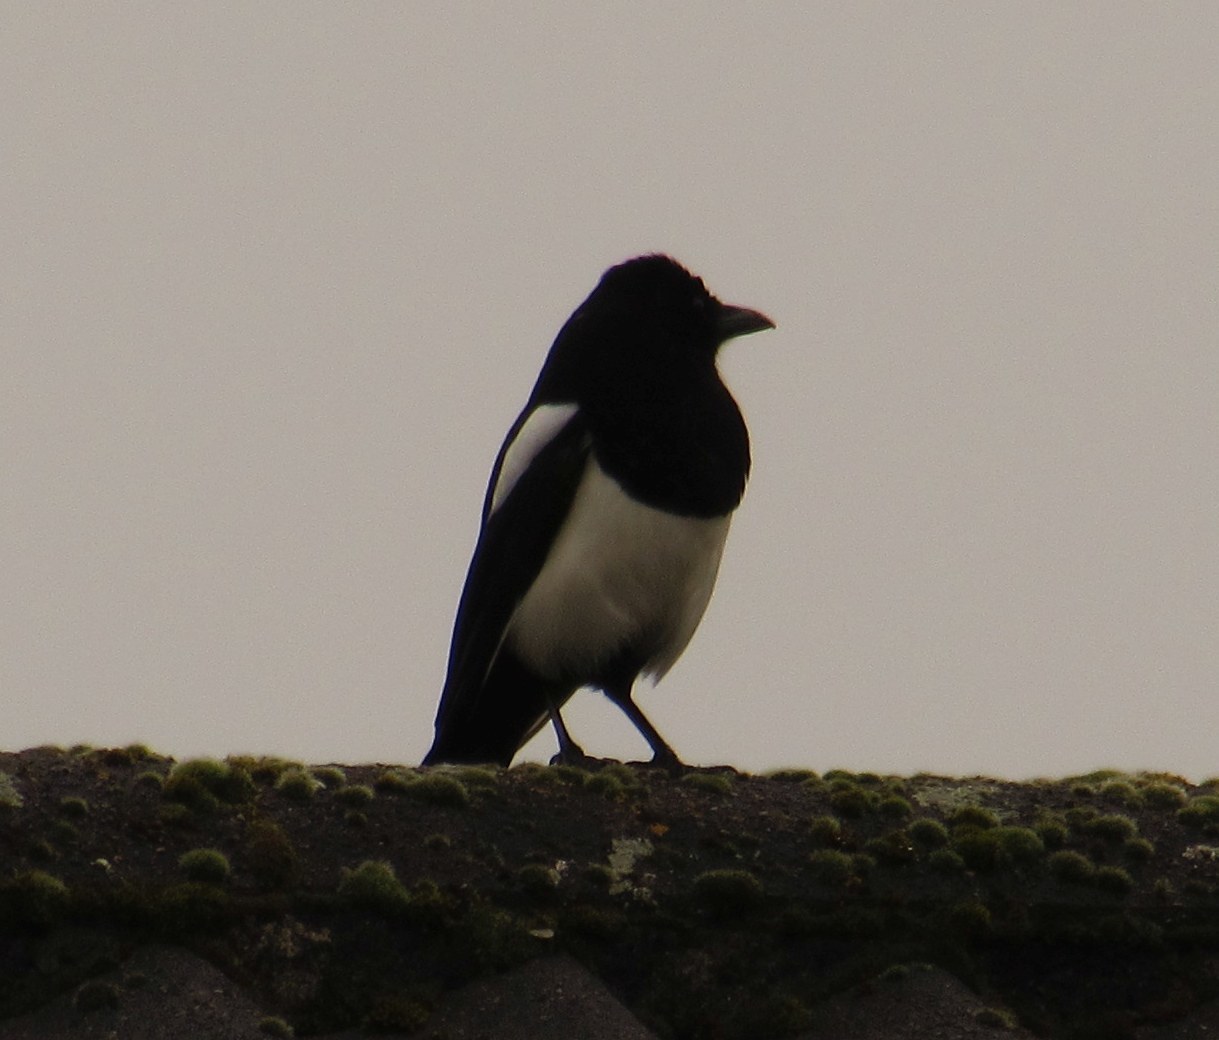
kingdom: Animalia
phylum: Chordata
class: Aves
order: Passeriformes
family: Corvidae
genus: Pica
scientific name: Pica pica
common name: Eurasian magpie
